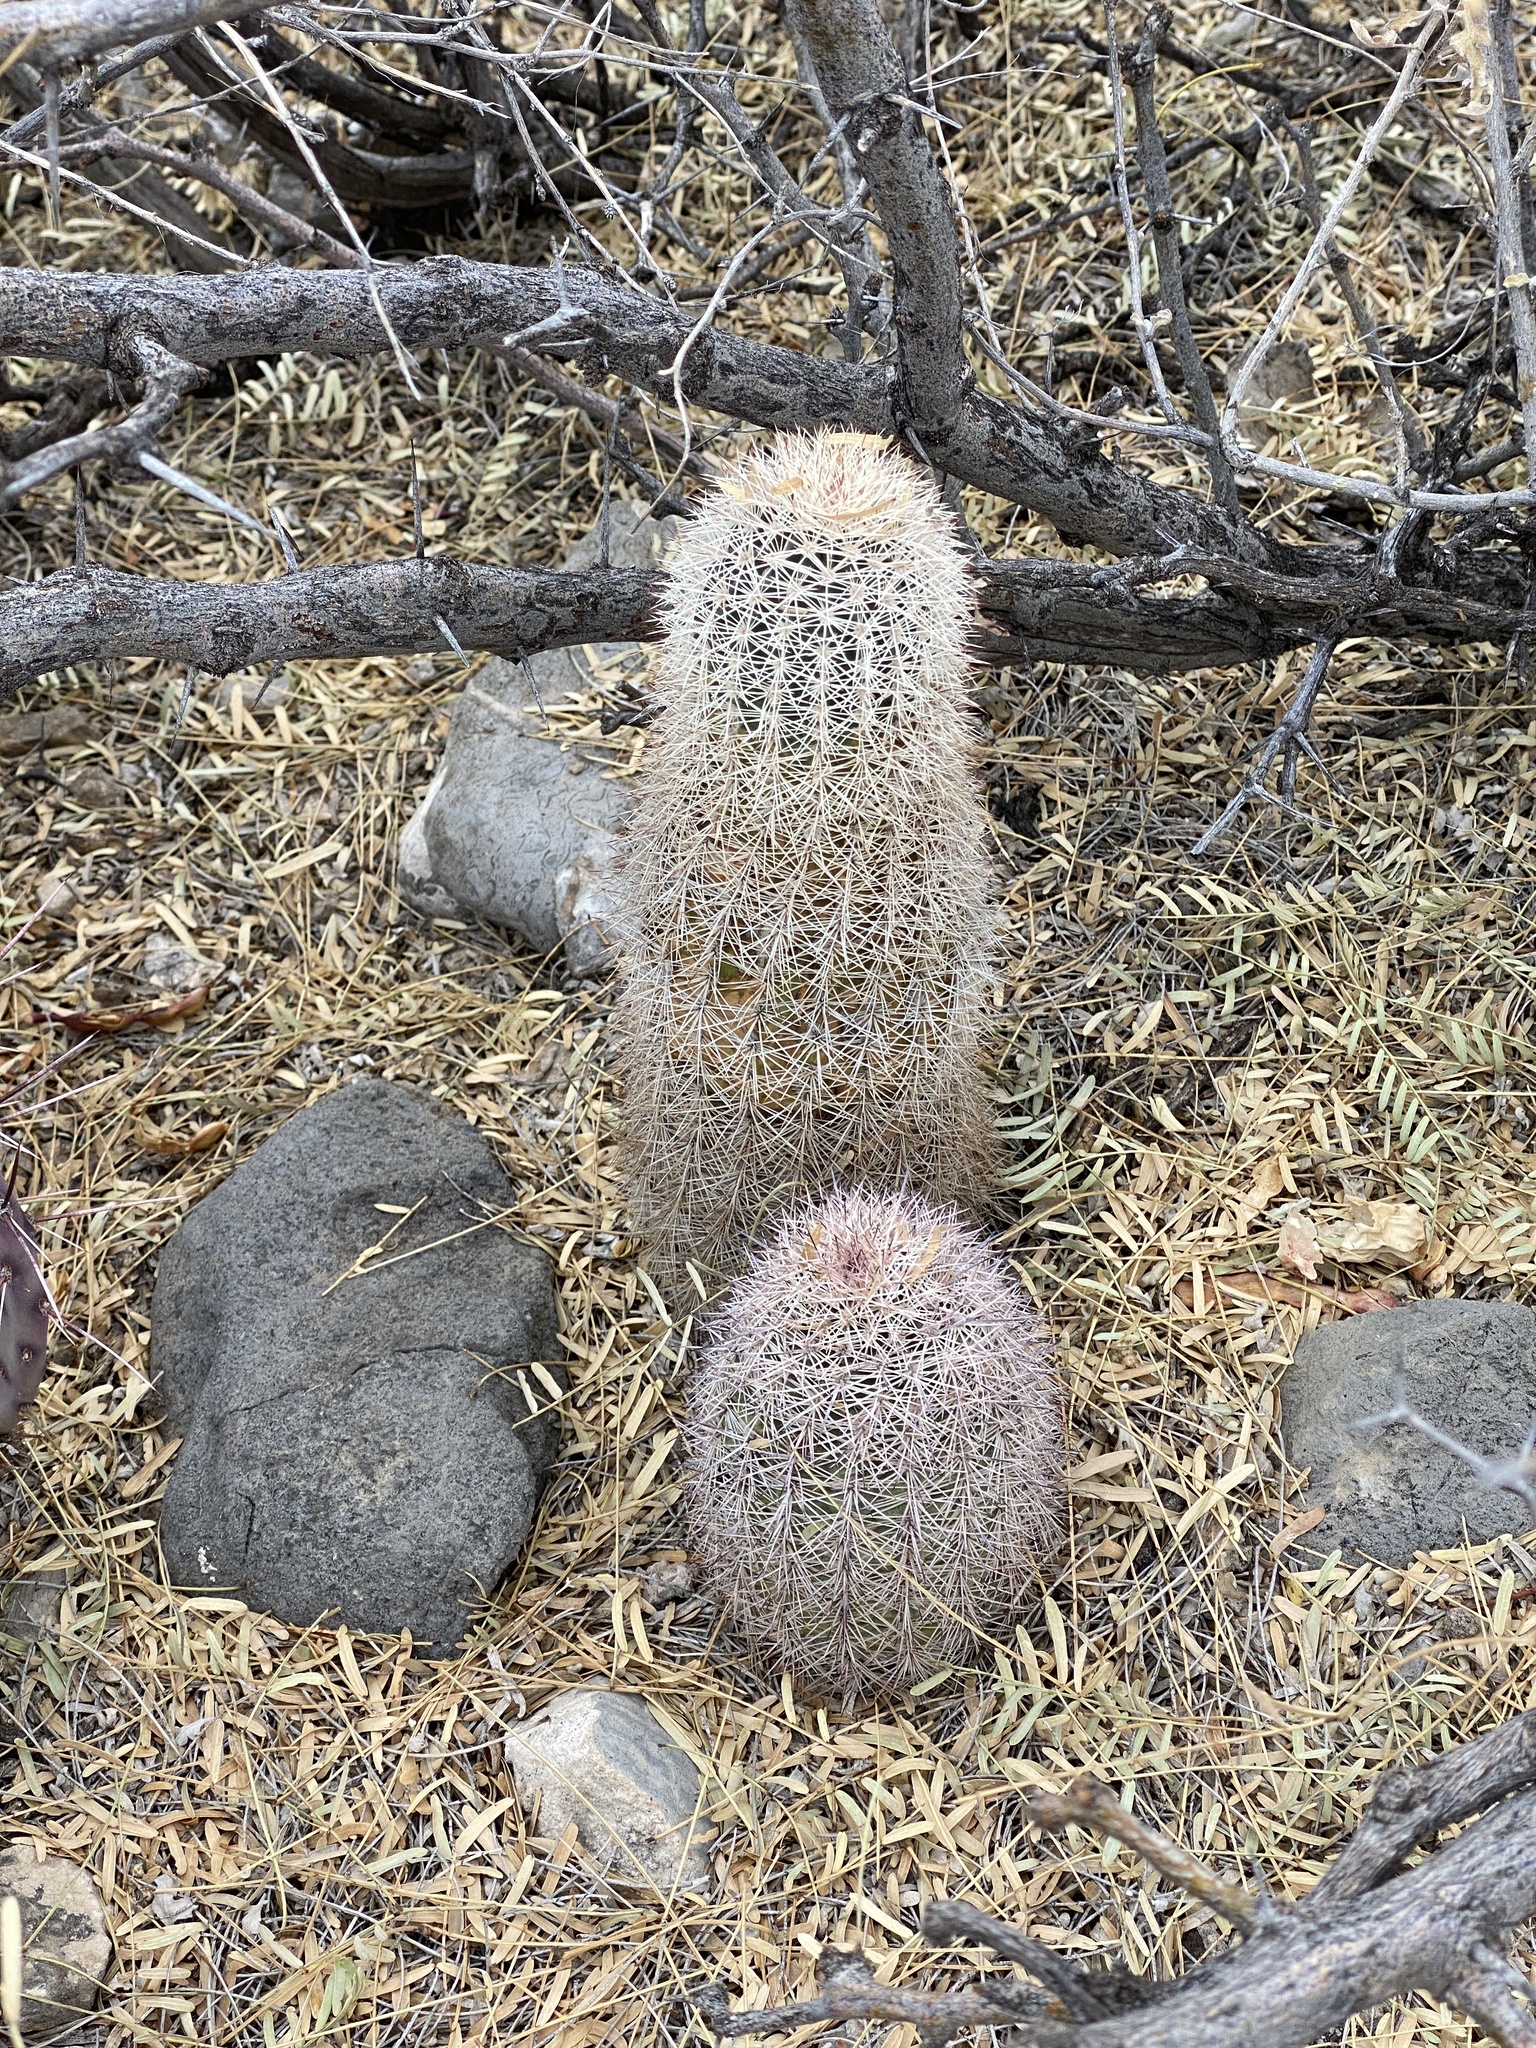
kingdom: Plantae
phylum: Tracheophyta
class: Magnoliopsida
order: Caryophyllales
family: Cactaceae
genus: Echinocereus
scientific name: Echinocereus dasyacanthus
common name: Spiny hedgehog cactus
